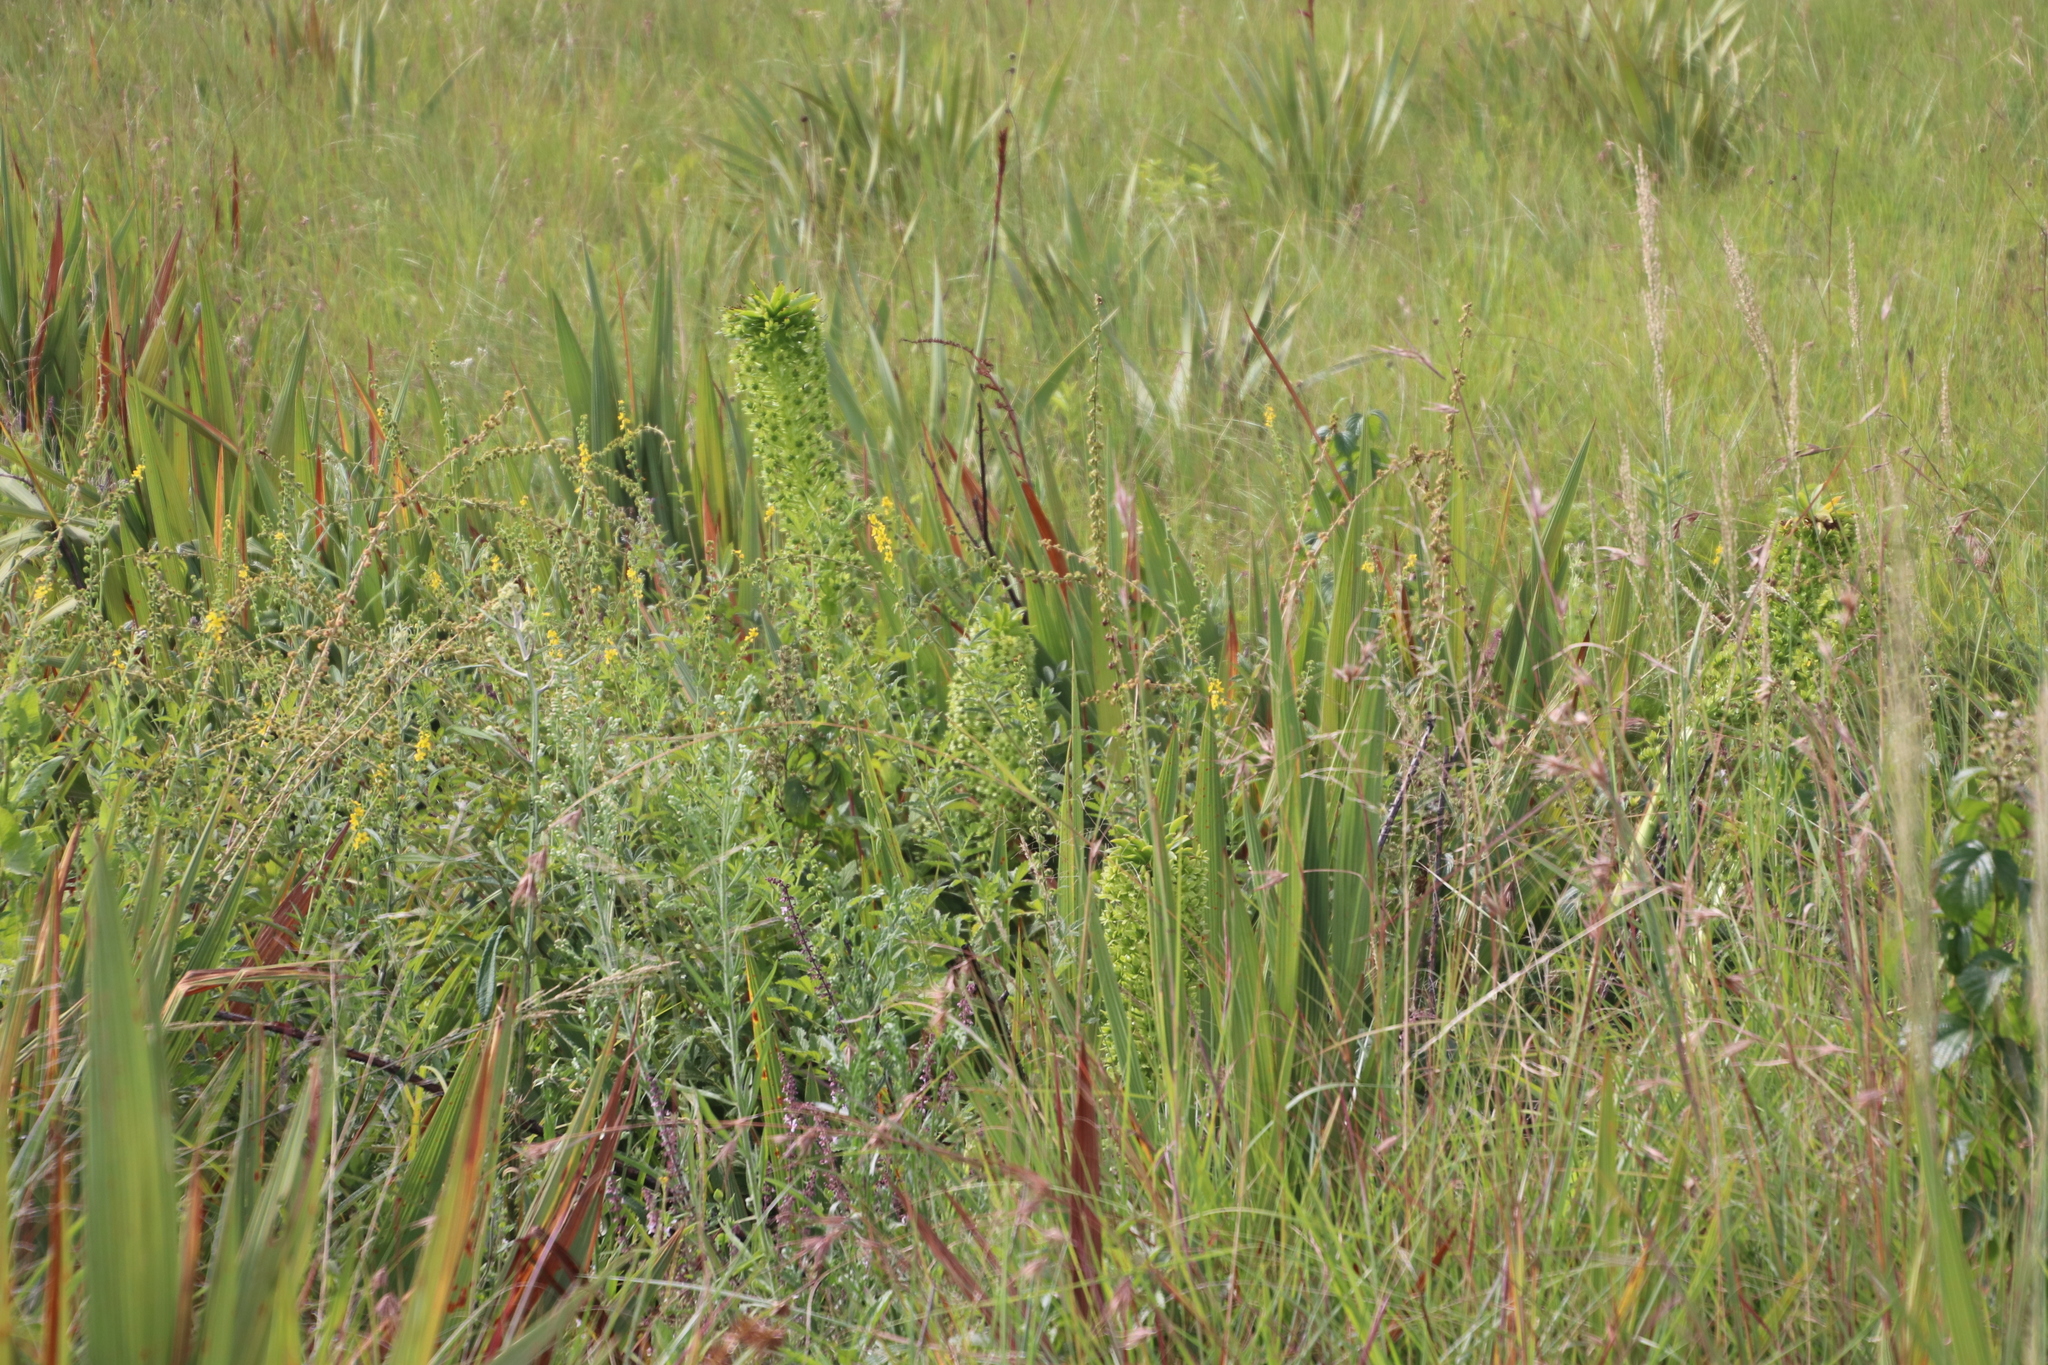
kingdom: Plantae
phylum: Tracheophyta
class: Liliopsida
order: Asparagales
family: Asparagaceae
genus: Eucomis
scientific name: Eucomis autumnalis
